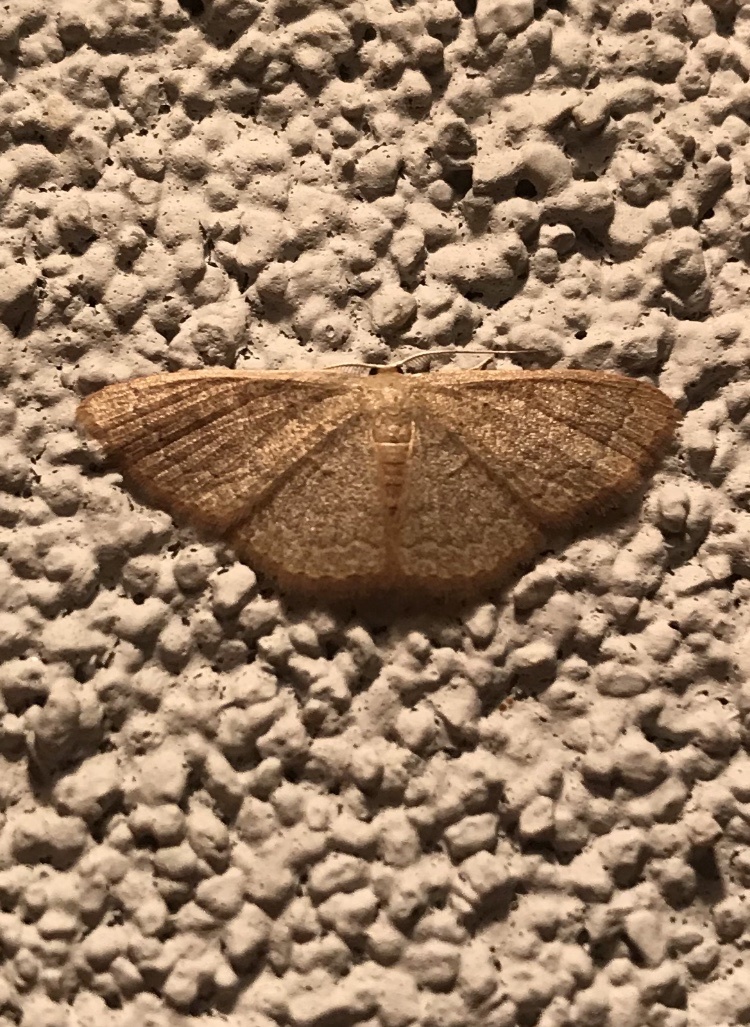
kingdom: Animalia
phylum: Arthropoda
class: Insecta
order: Lepidoptera
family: Geometridae
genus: Pleuroprucha
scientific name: Pleuroprucha insulsaria
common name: Common tan wave
